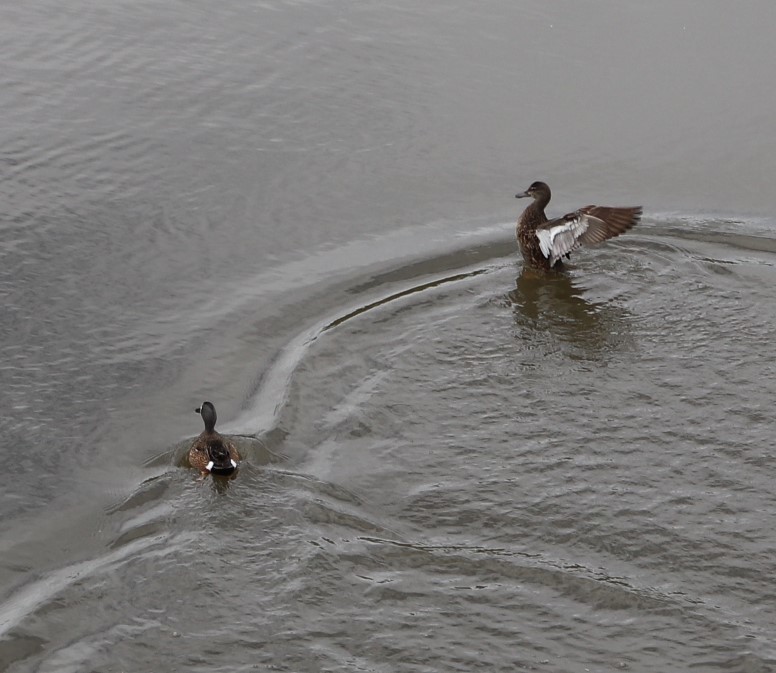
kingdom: Animalia
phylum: Chordata
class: Aves
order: Anseriformes
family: Anatidae
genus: Spatula
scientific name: Spatula discors
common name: Blue-winged teal
